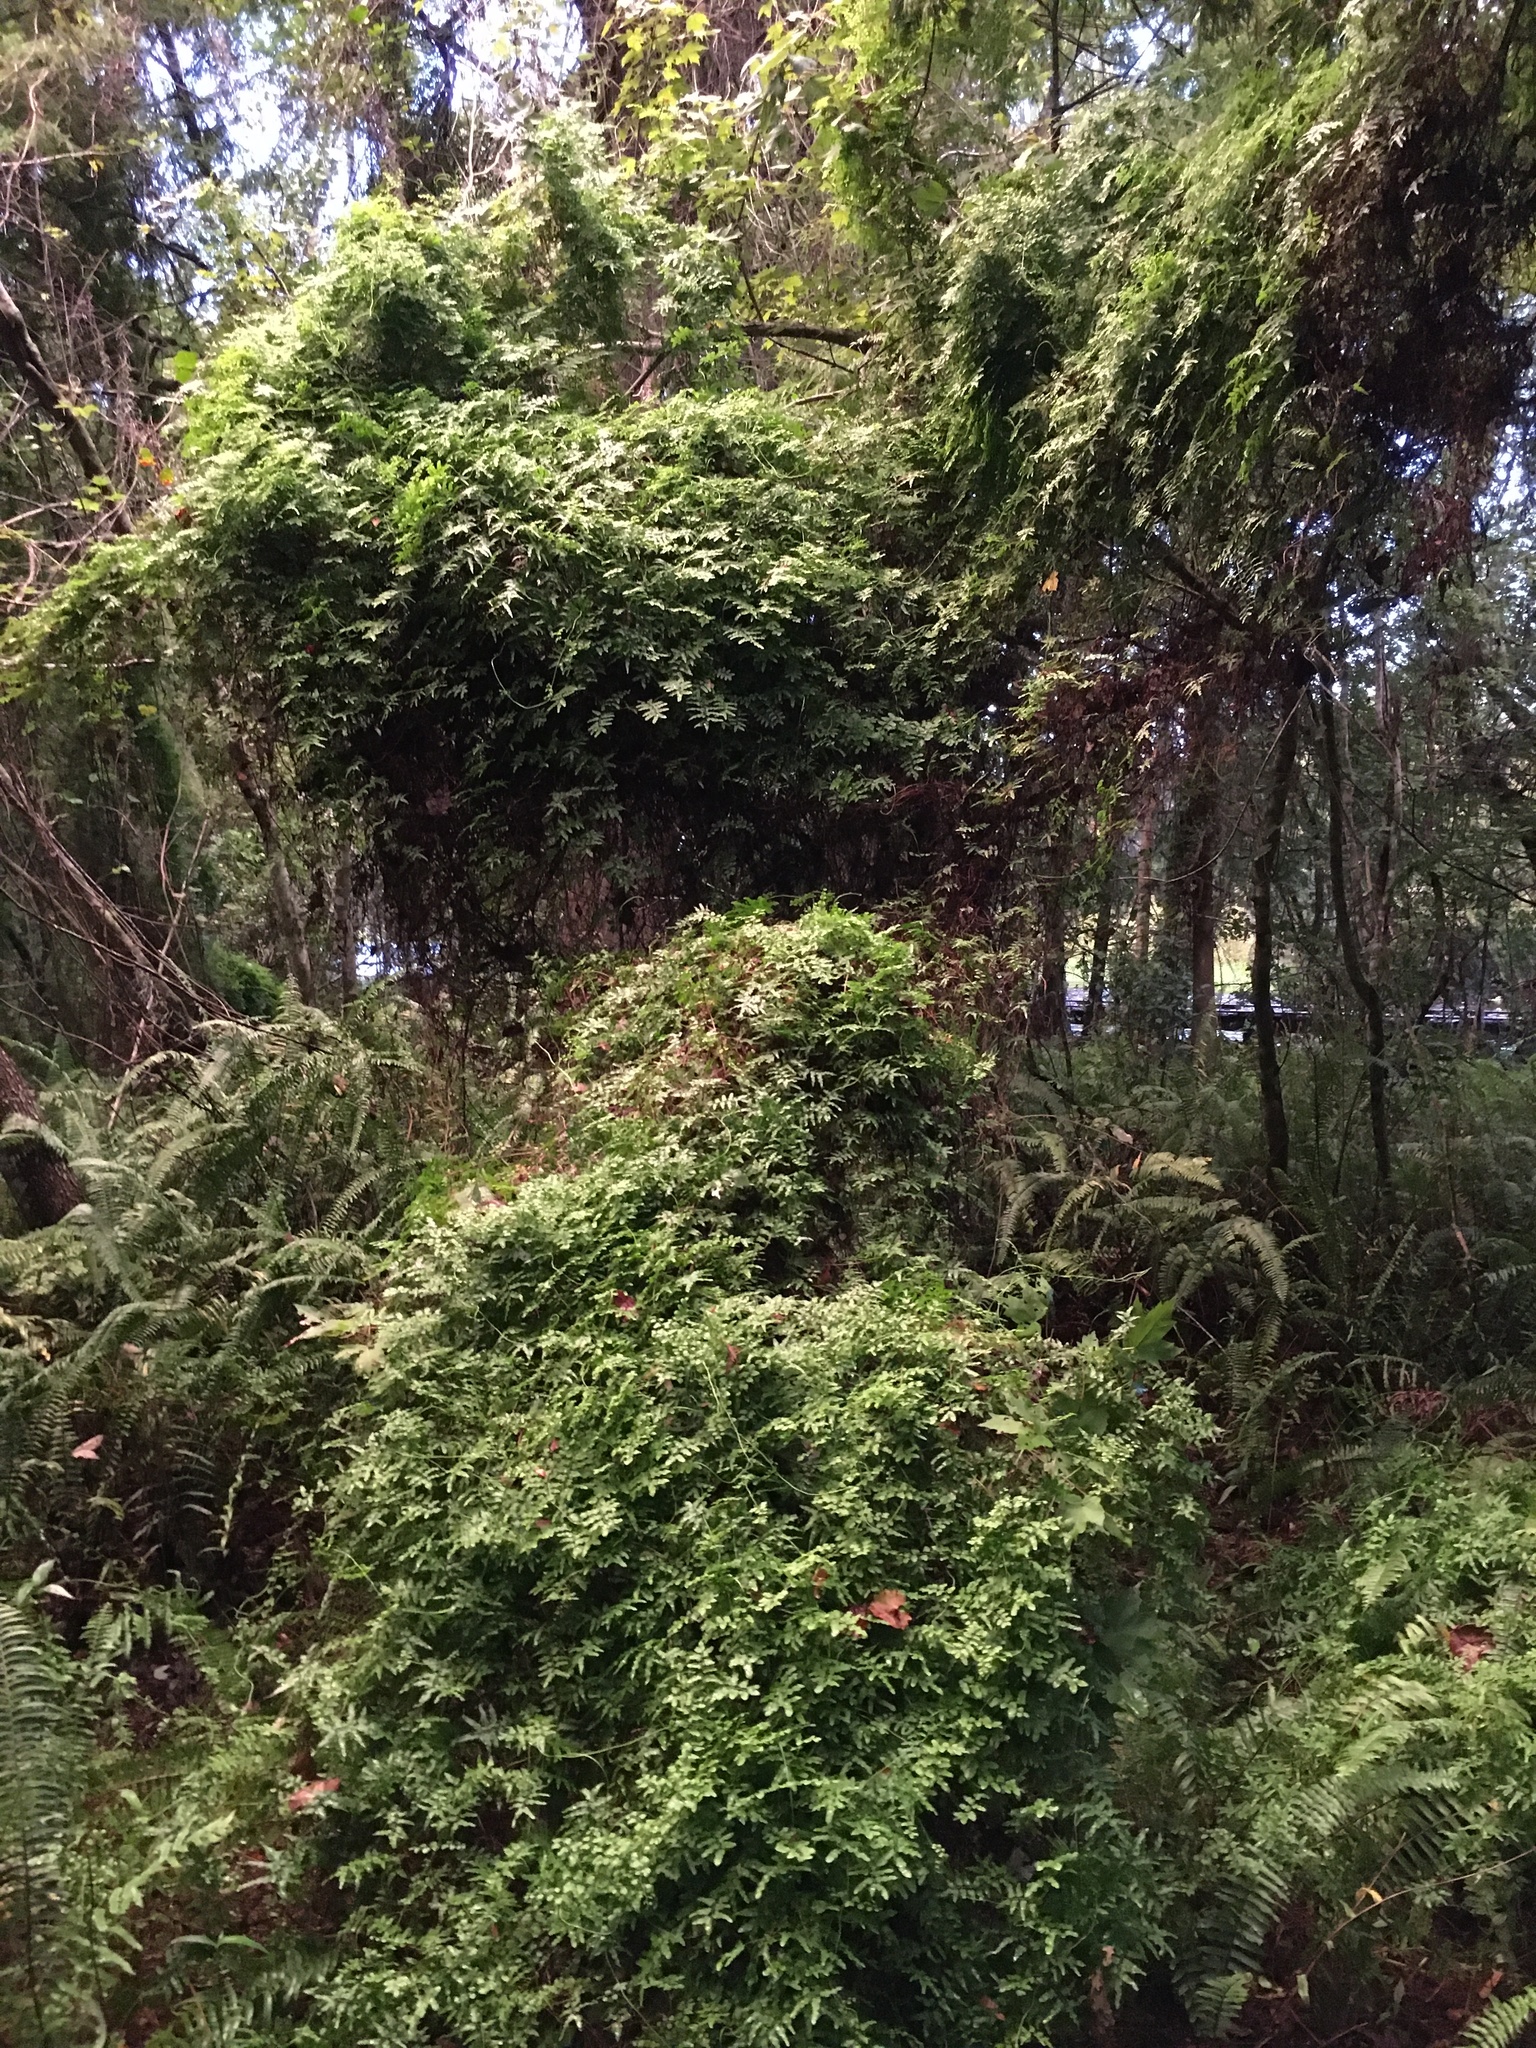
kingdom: Plantae
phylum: Tracheophyta
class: Polypodiopsida
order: Schizaeales
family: Lygodiaceae
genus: Lygodium
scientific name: Lygodium microphyllum
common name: Small-leaf climbing fern
